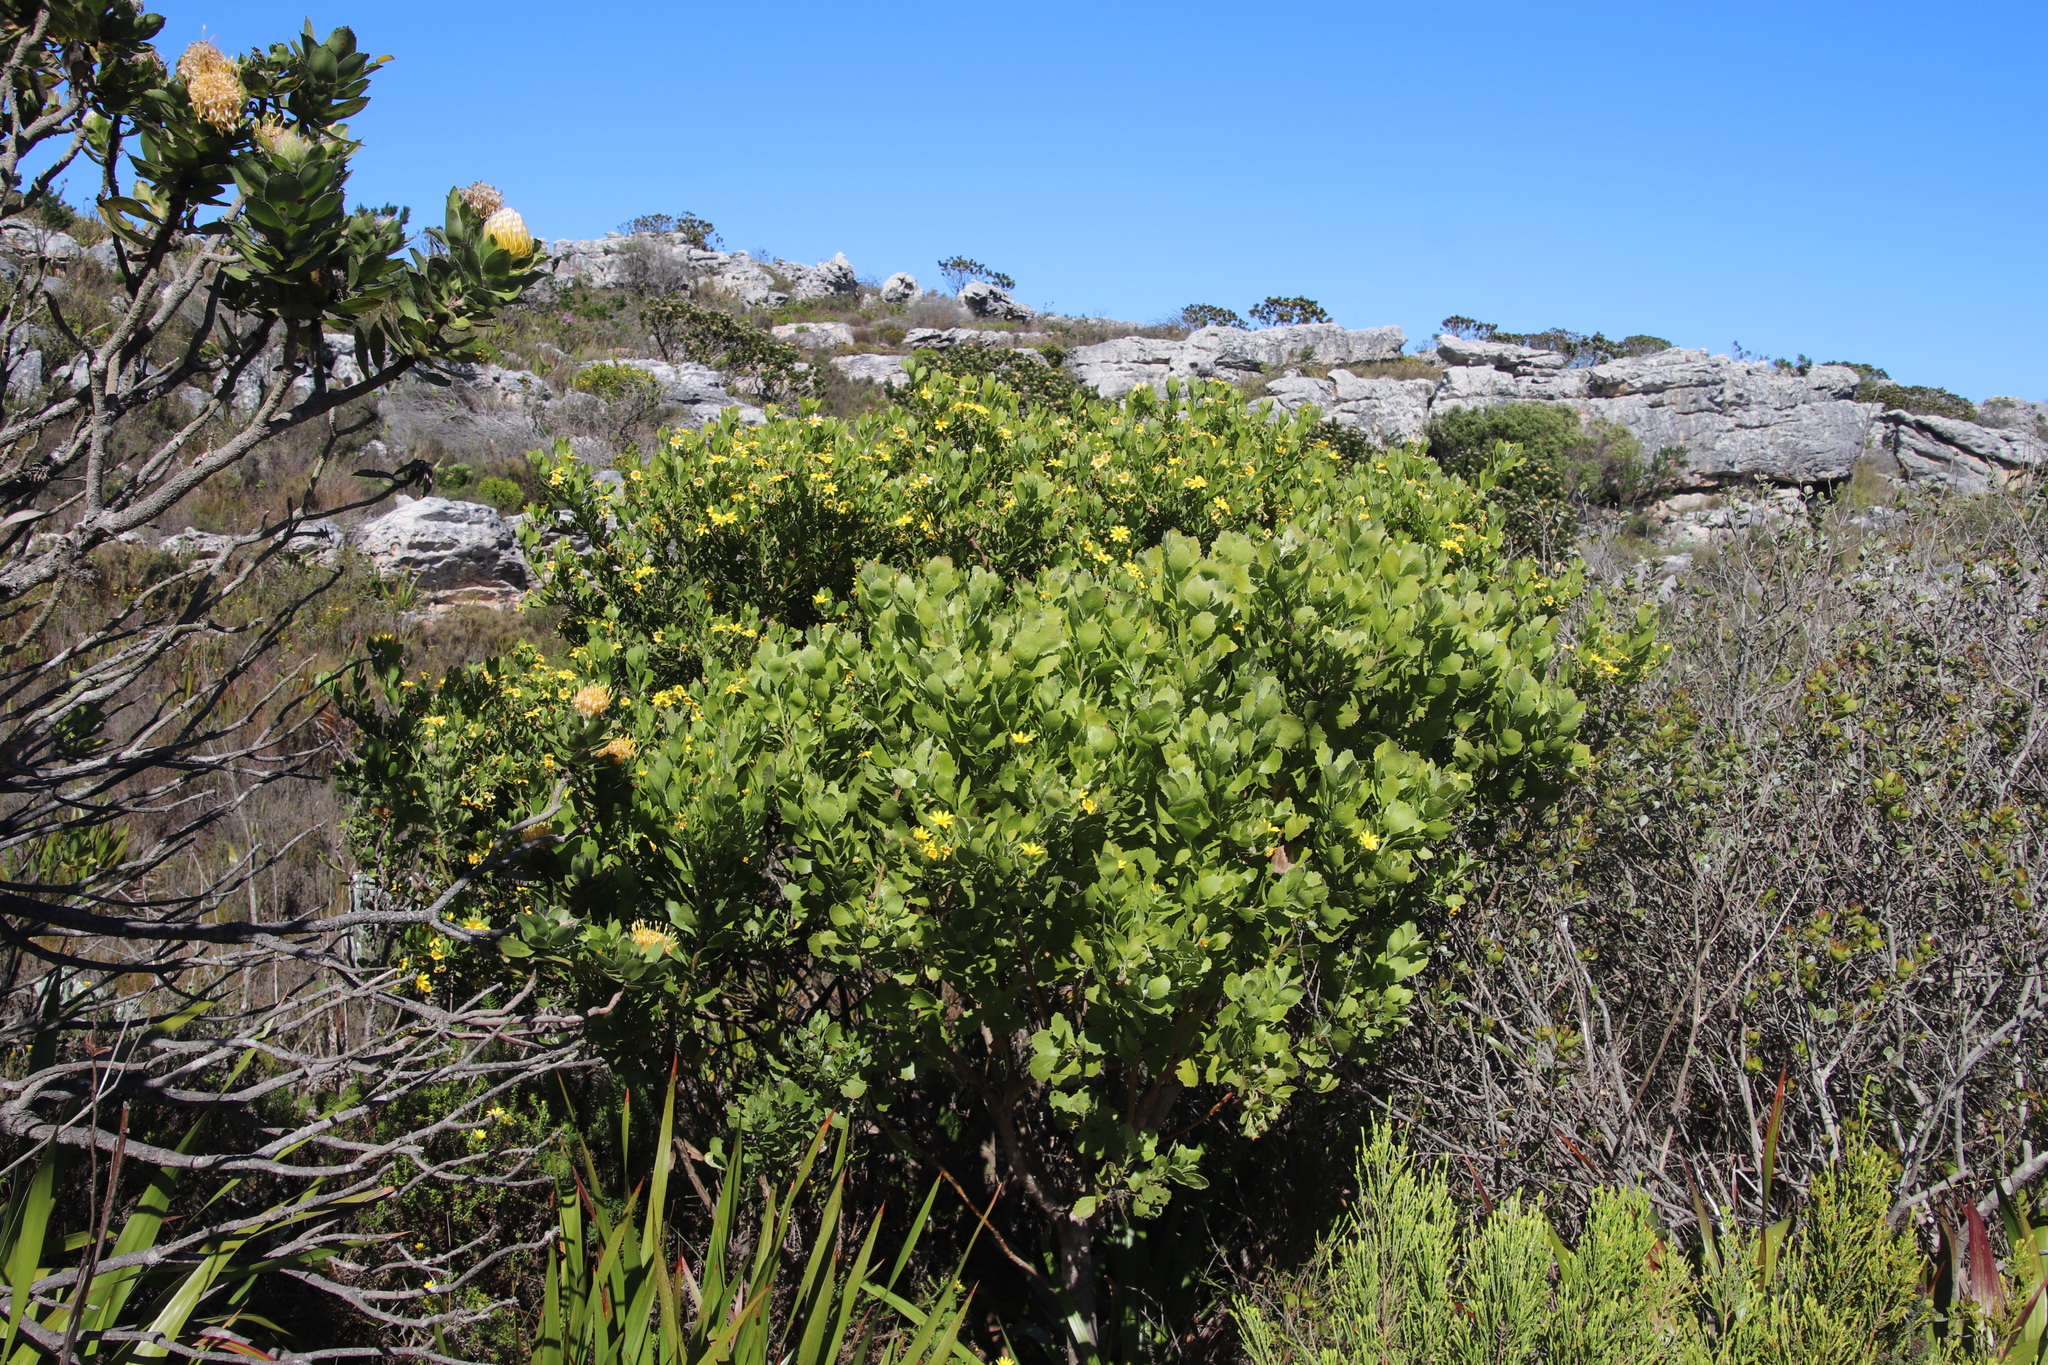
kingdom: Plantae
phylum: Tracheophyta
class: Magnoliopsida
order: Asterales
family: Asteraceae
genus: Osteospermum
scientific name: Osteospermum moniliferum
